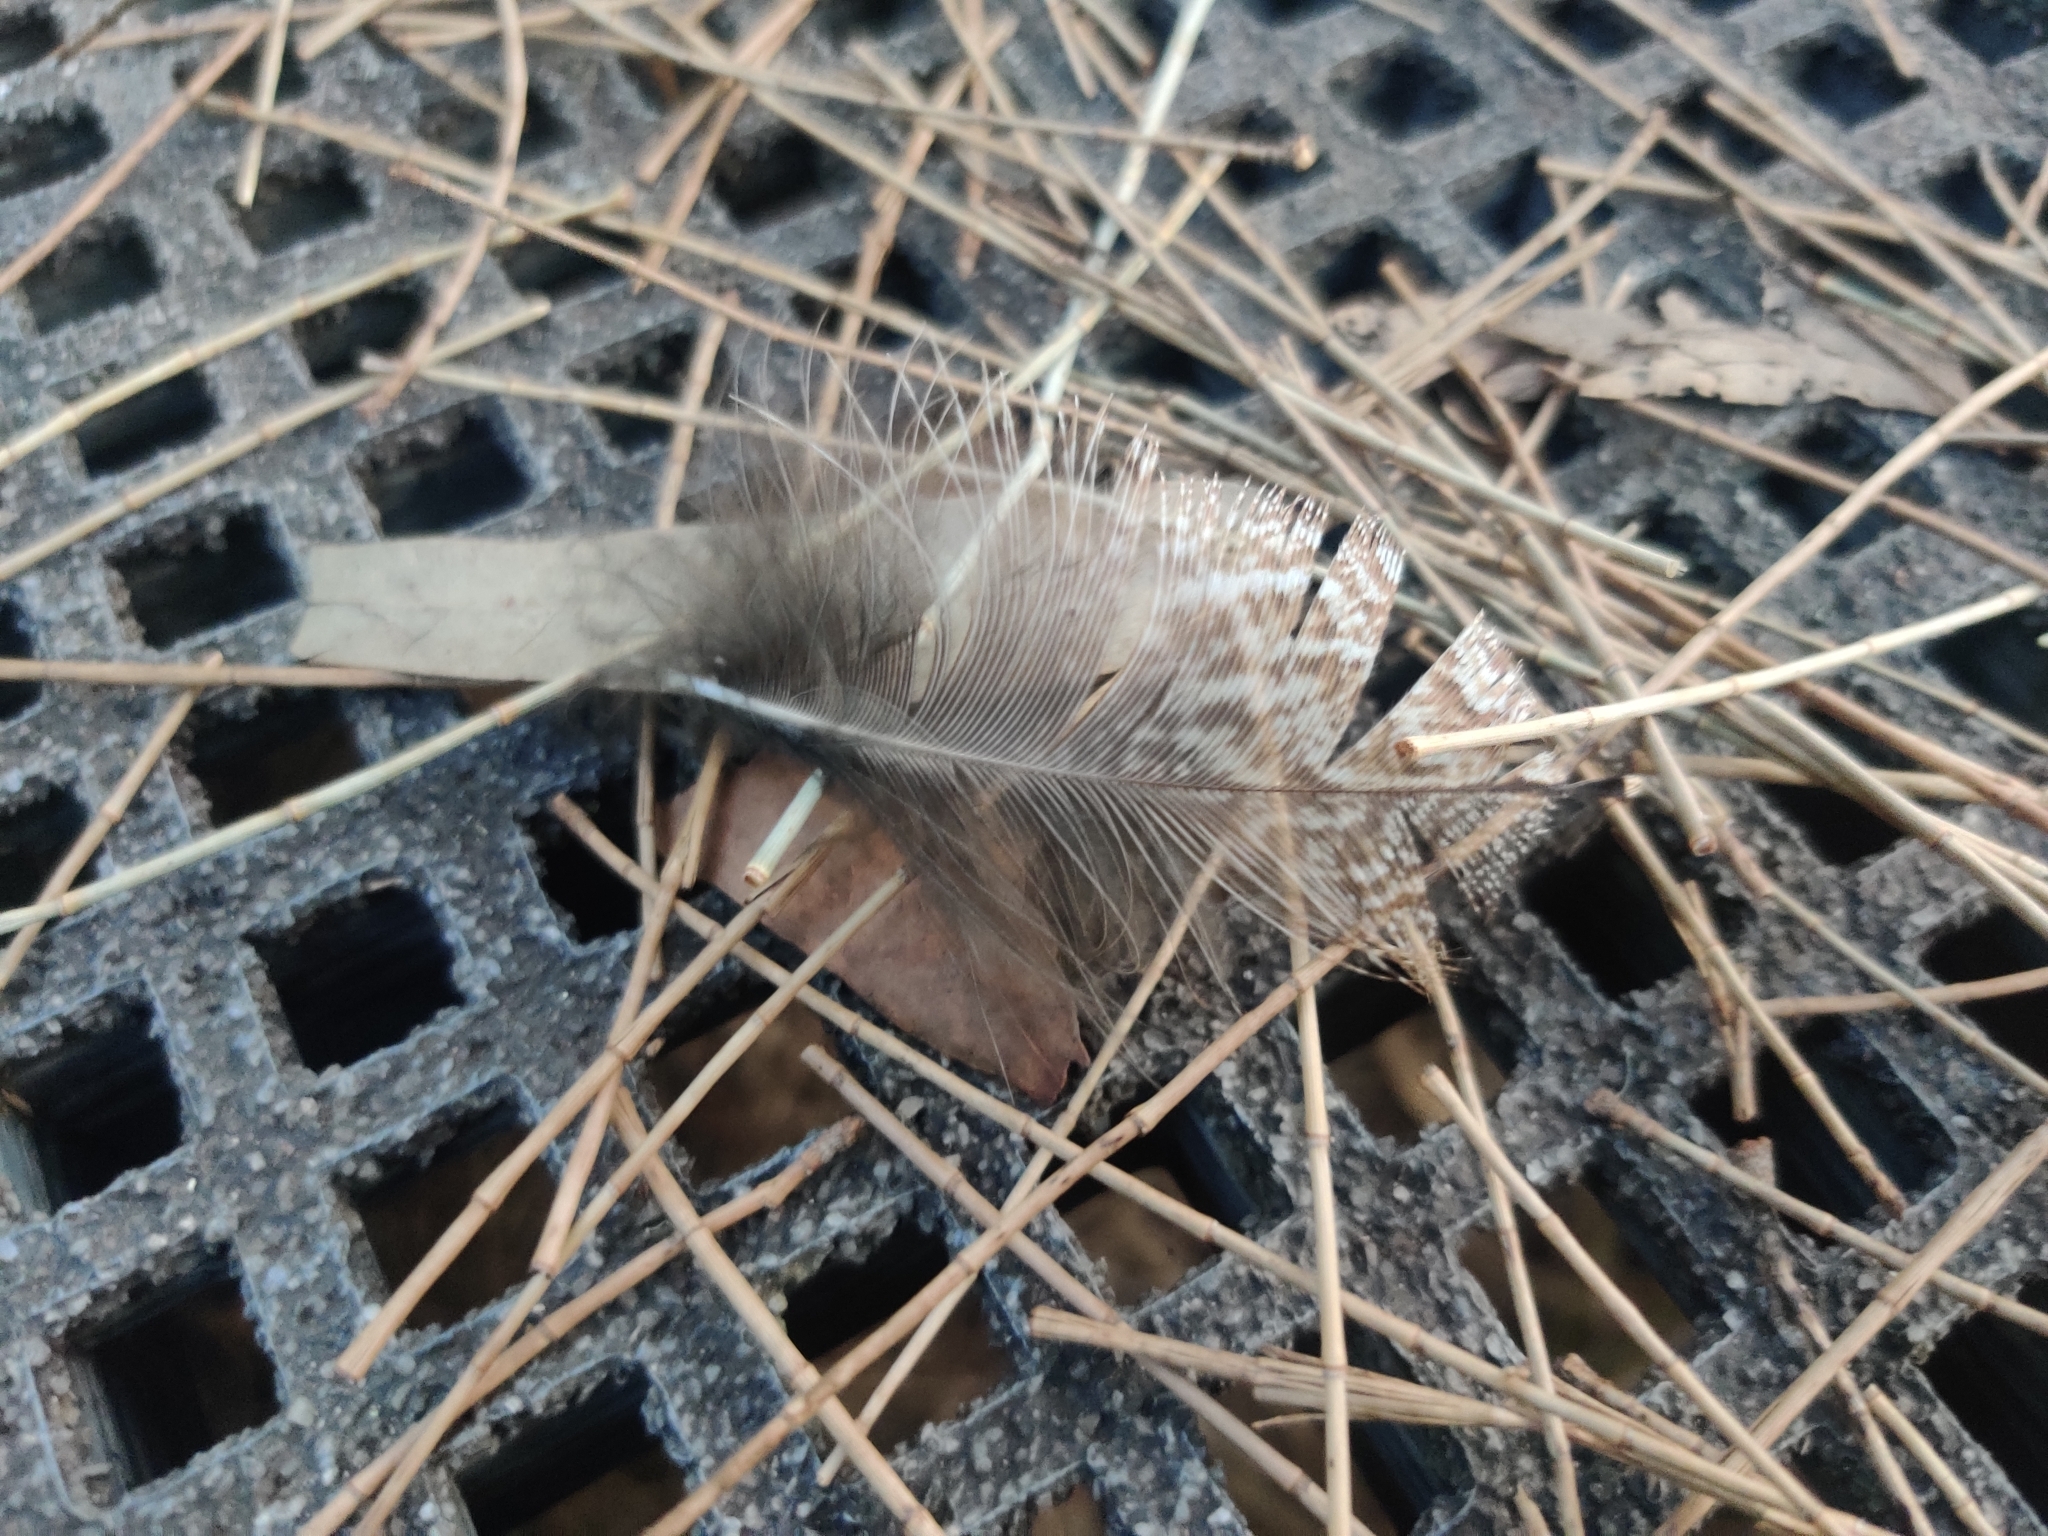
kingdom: Animalia
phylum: Chordata
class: Aves
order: Caprimulgiformes
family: Podargidae
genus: Podargus
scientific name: Podargus strigoides
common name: Tawny frogmouth
